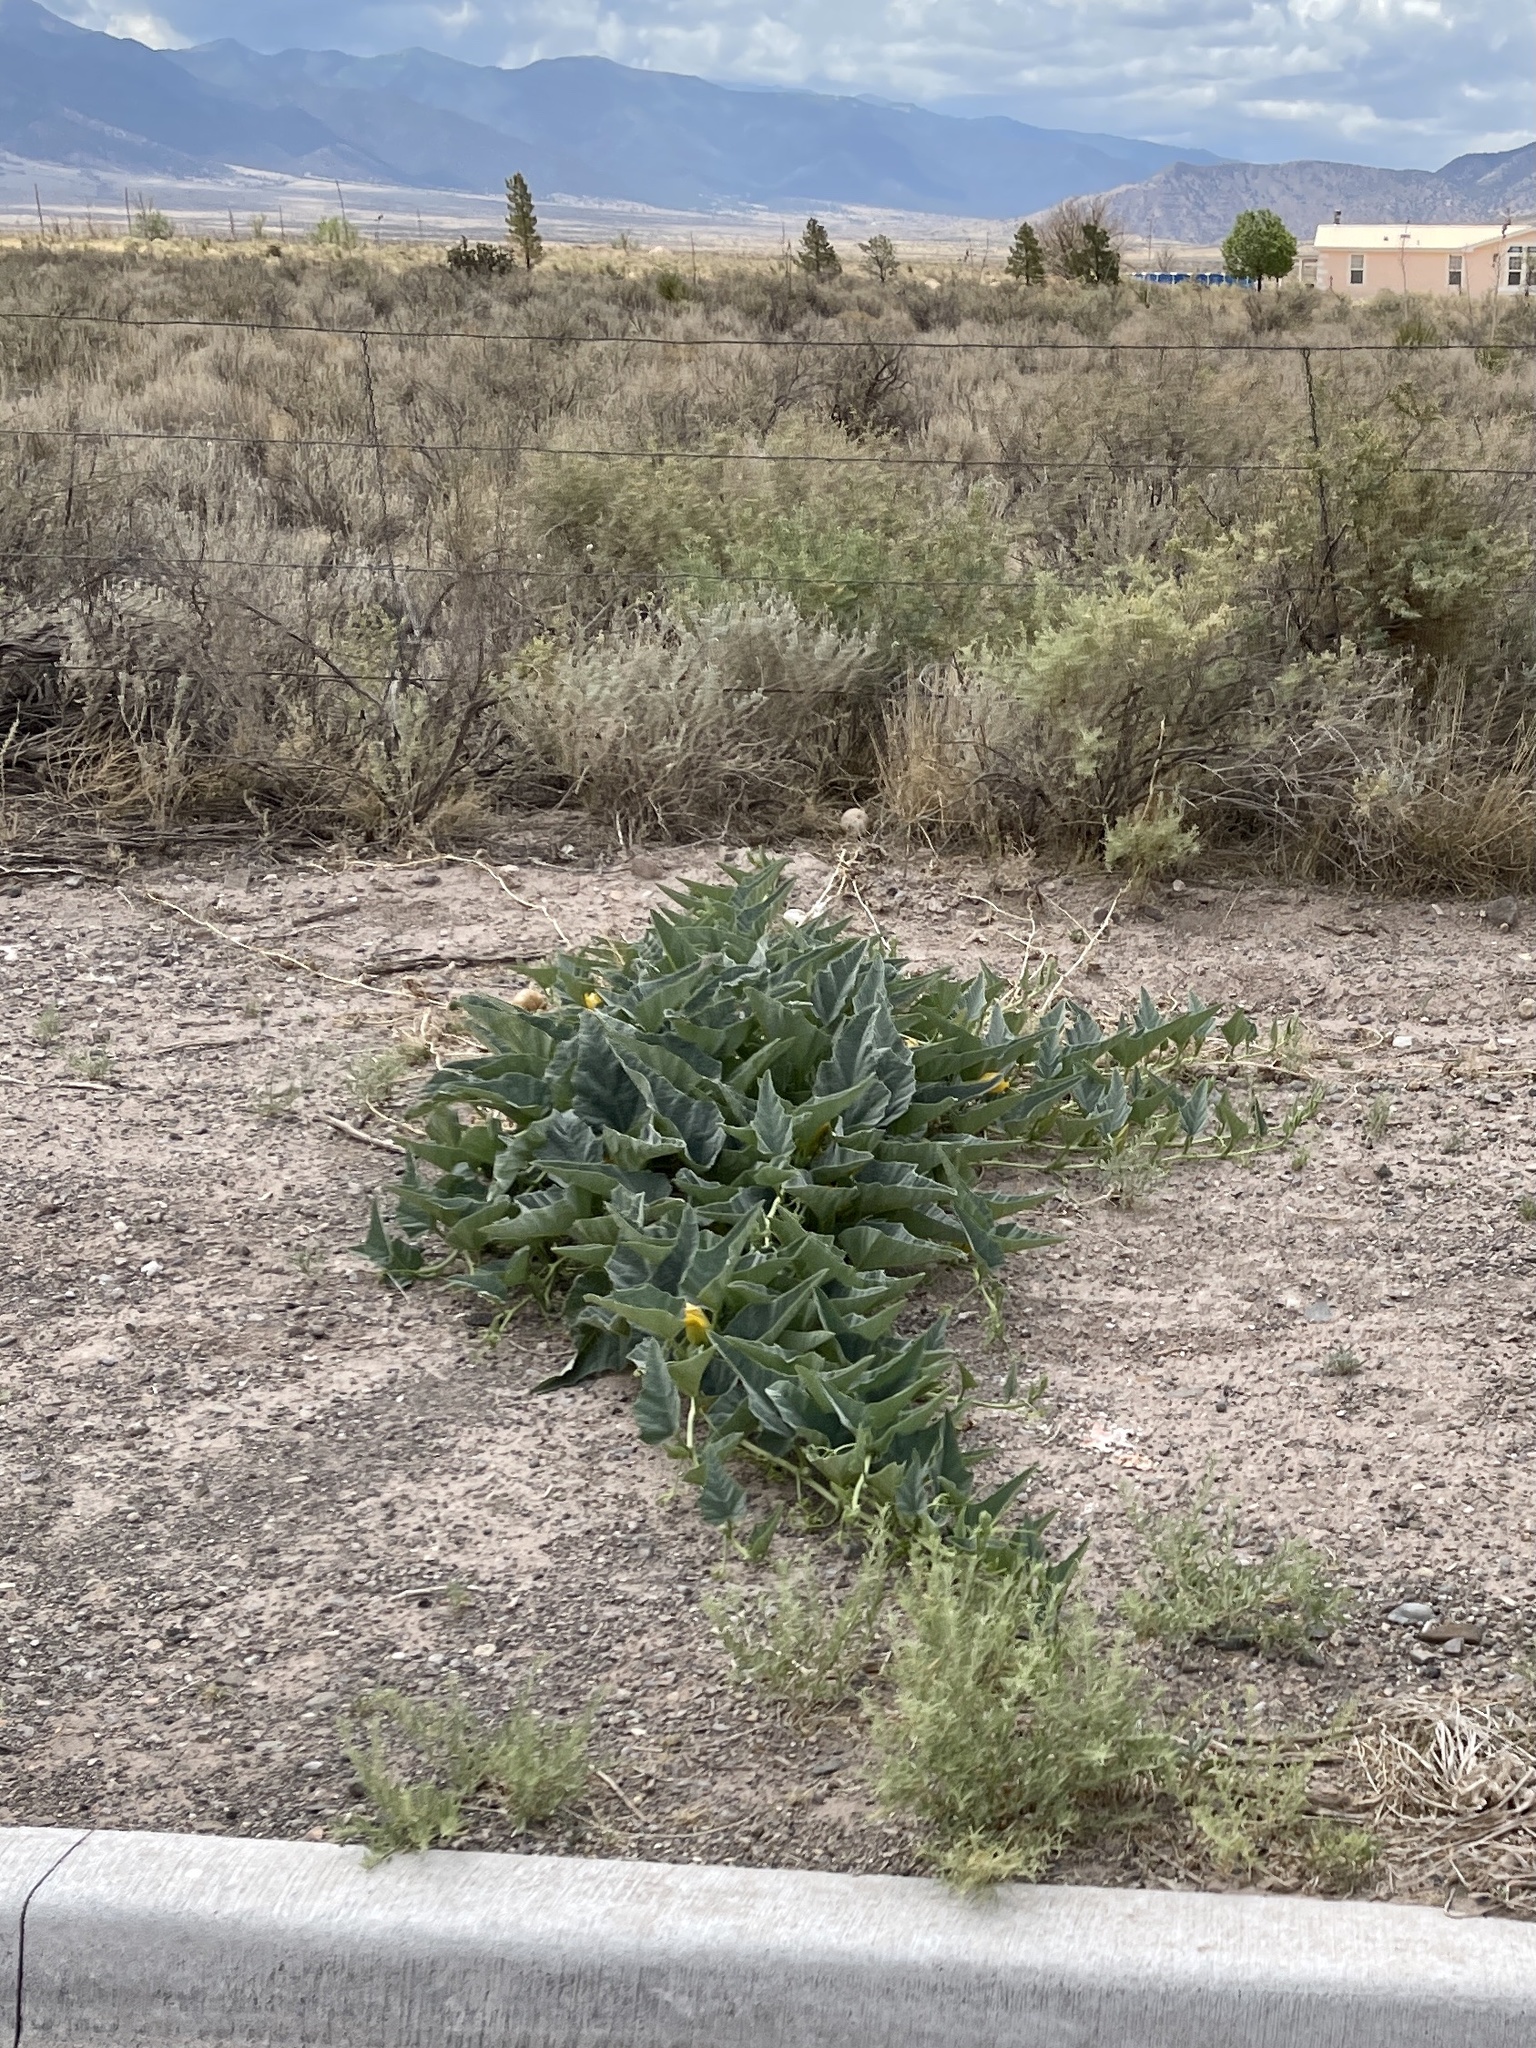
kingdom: Plantae
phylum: Tracheophyta
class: Magnoliopsida
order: Cucurbitales
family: Cucurbitaceae
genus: Cucurbita
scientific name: Cucurbita foetidissima
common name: Buffalo gourd
